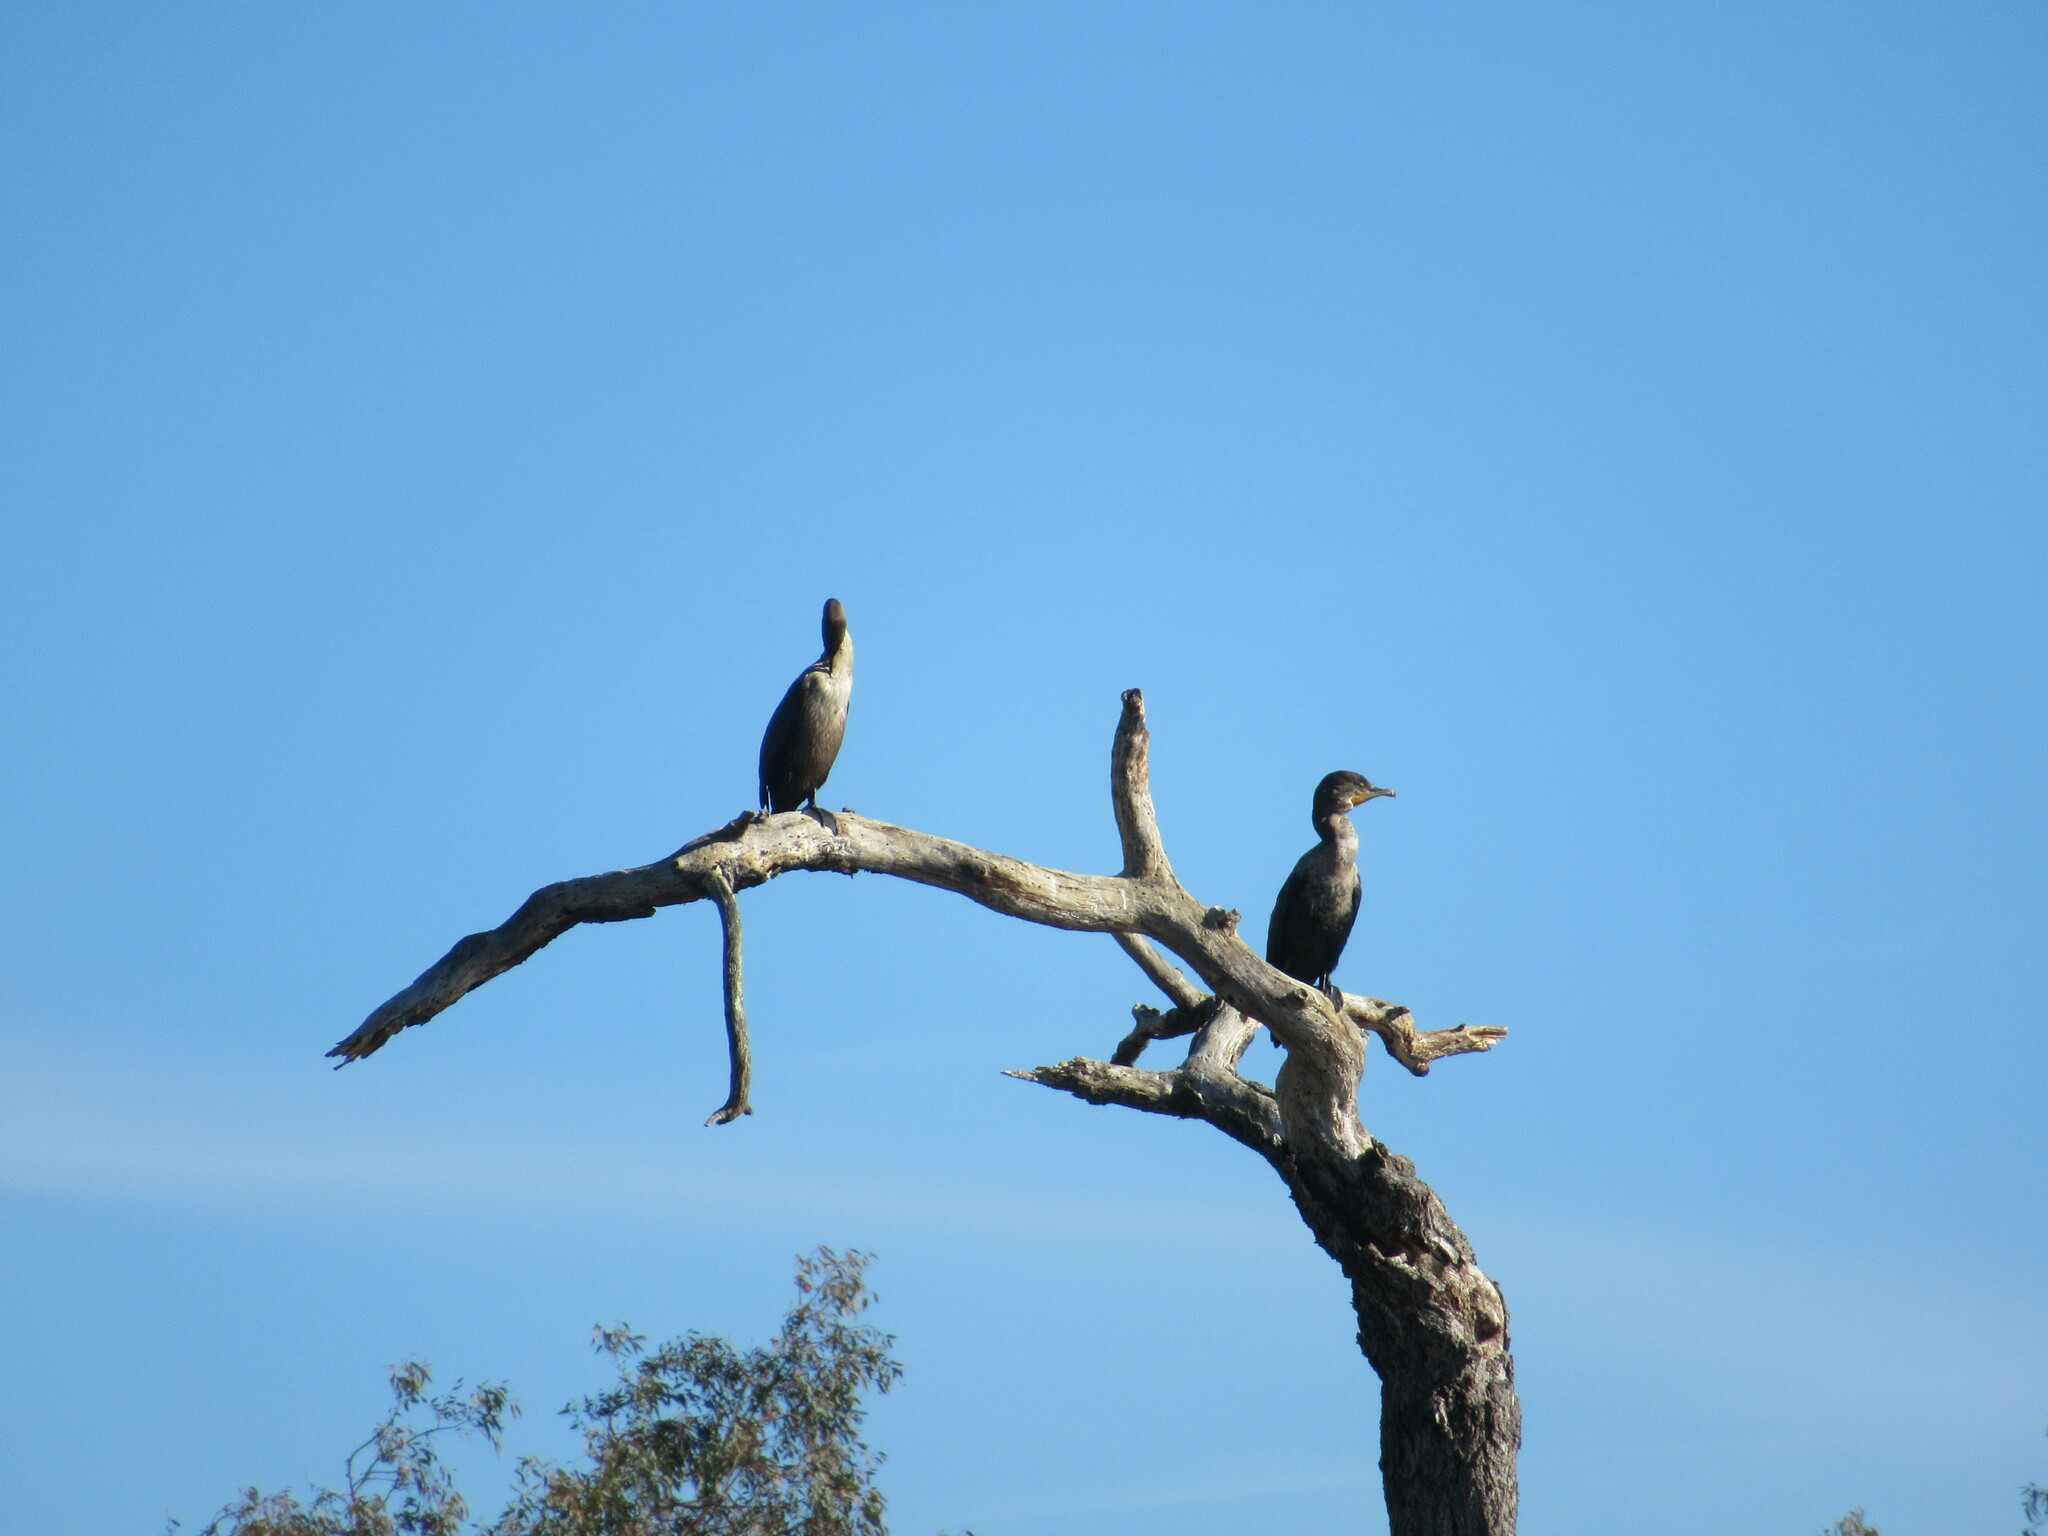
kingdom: Animalia
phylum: Chordata
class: Aves
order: Suliformes
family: Phalacrocoracidae
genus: Phalacrocorax
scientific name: Phalacrocorax auritus
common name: Double-crested cormorant
